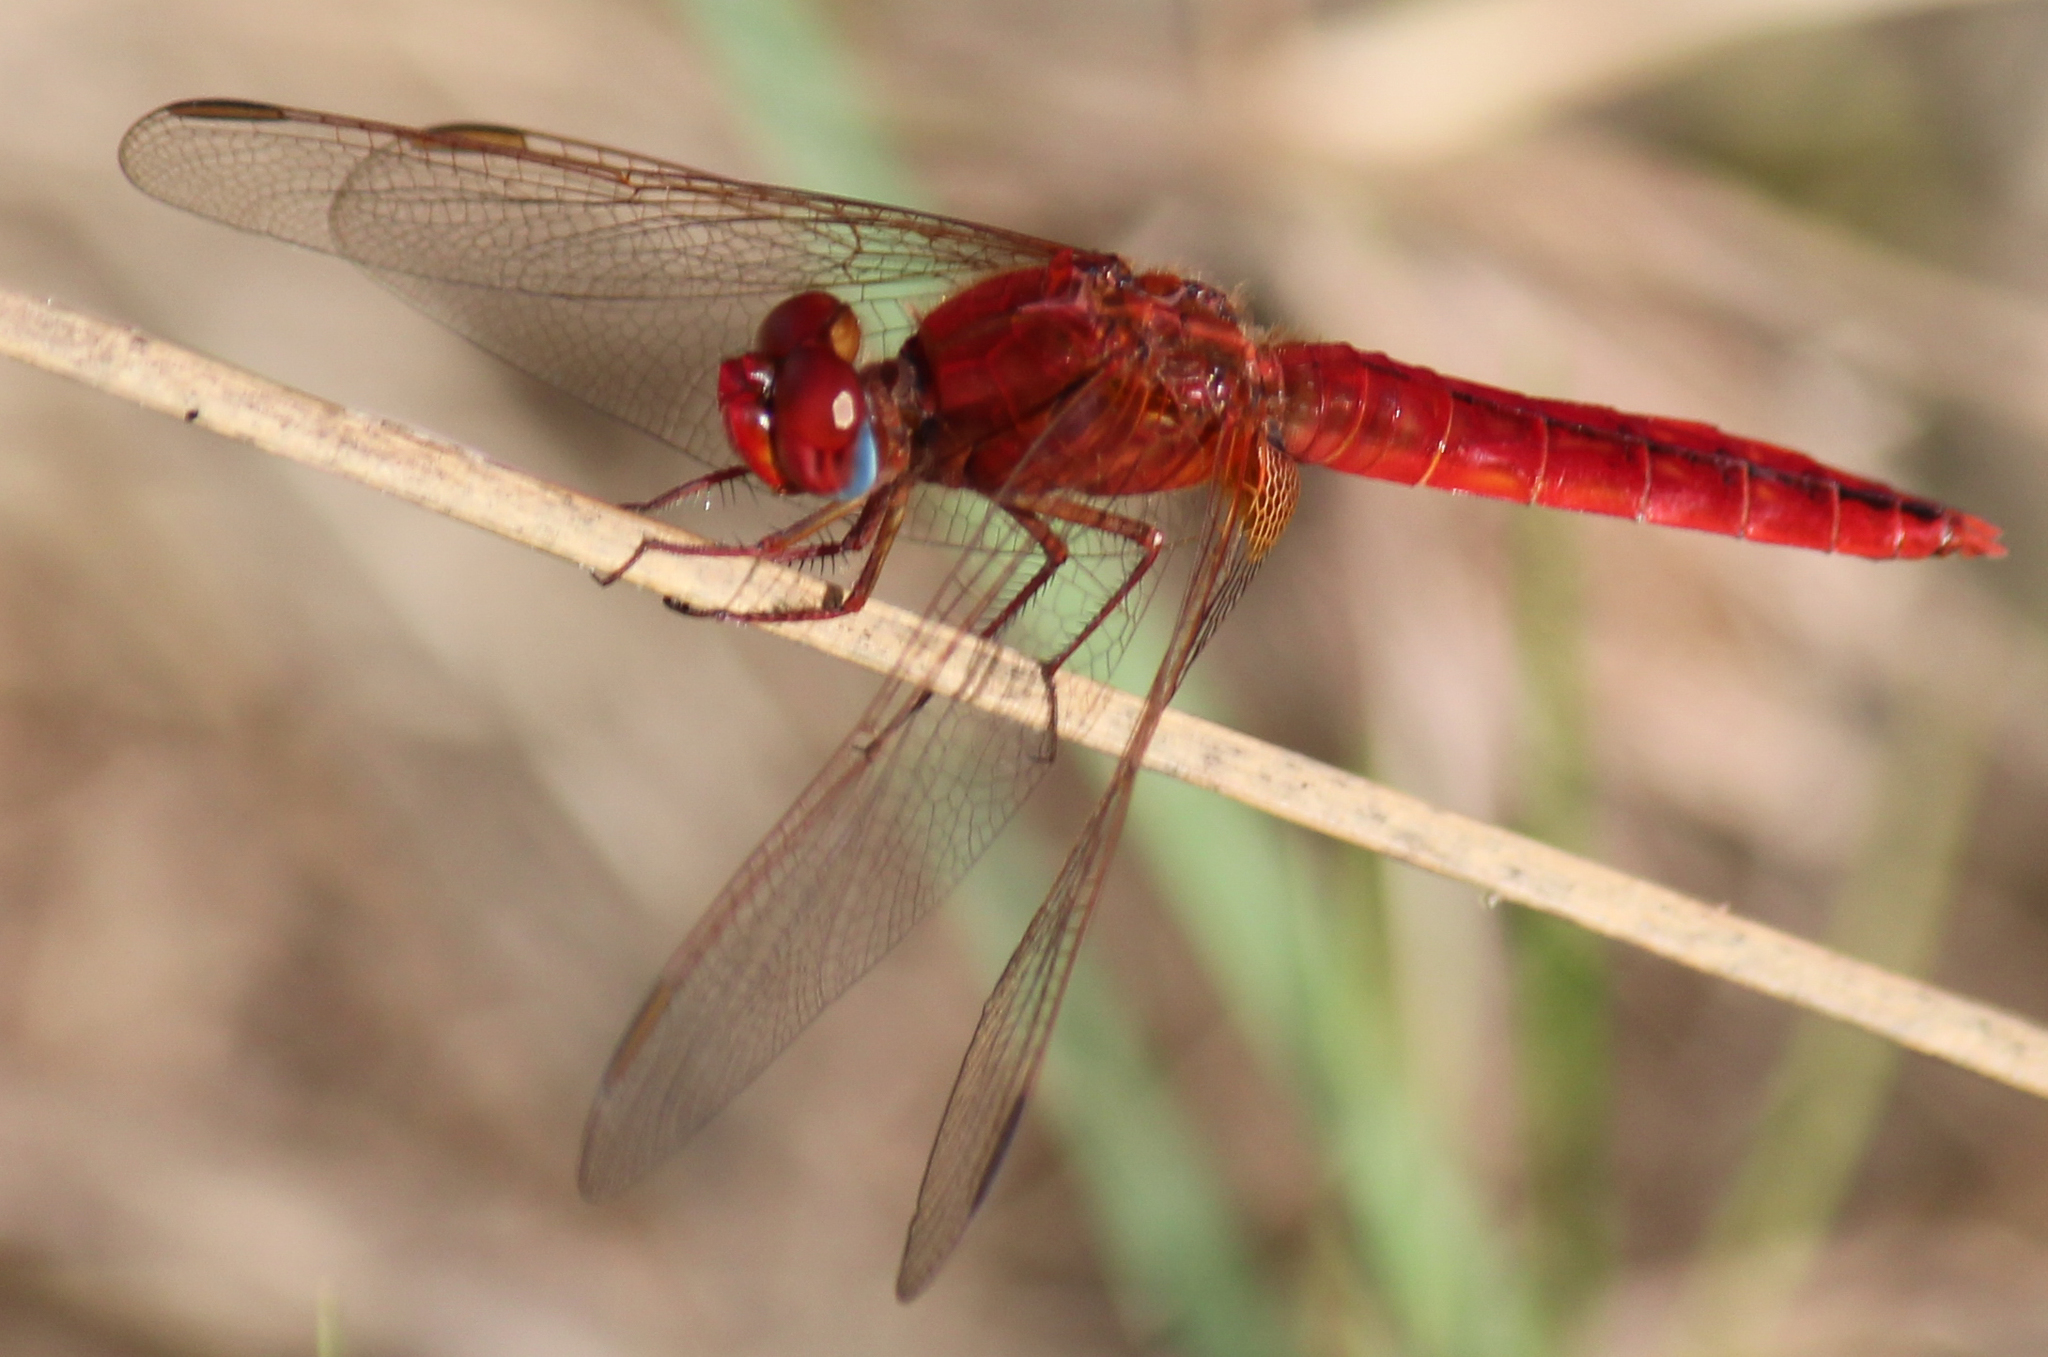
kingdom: Animalia
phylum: Arthropoda
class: Insecta
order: Odonata
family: Libellulidae
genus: Crocothemis
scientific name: Crocothemis erythraea
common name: Scarlet dragonfly
